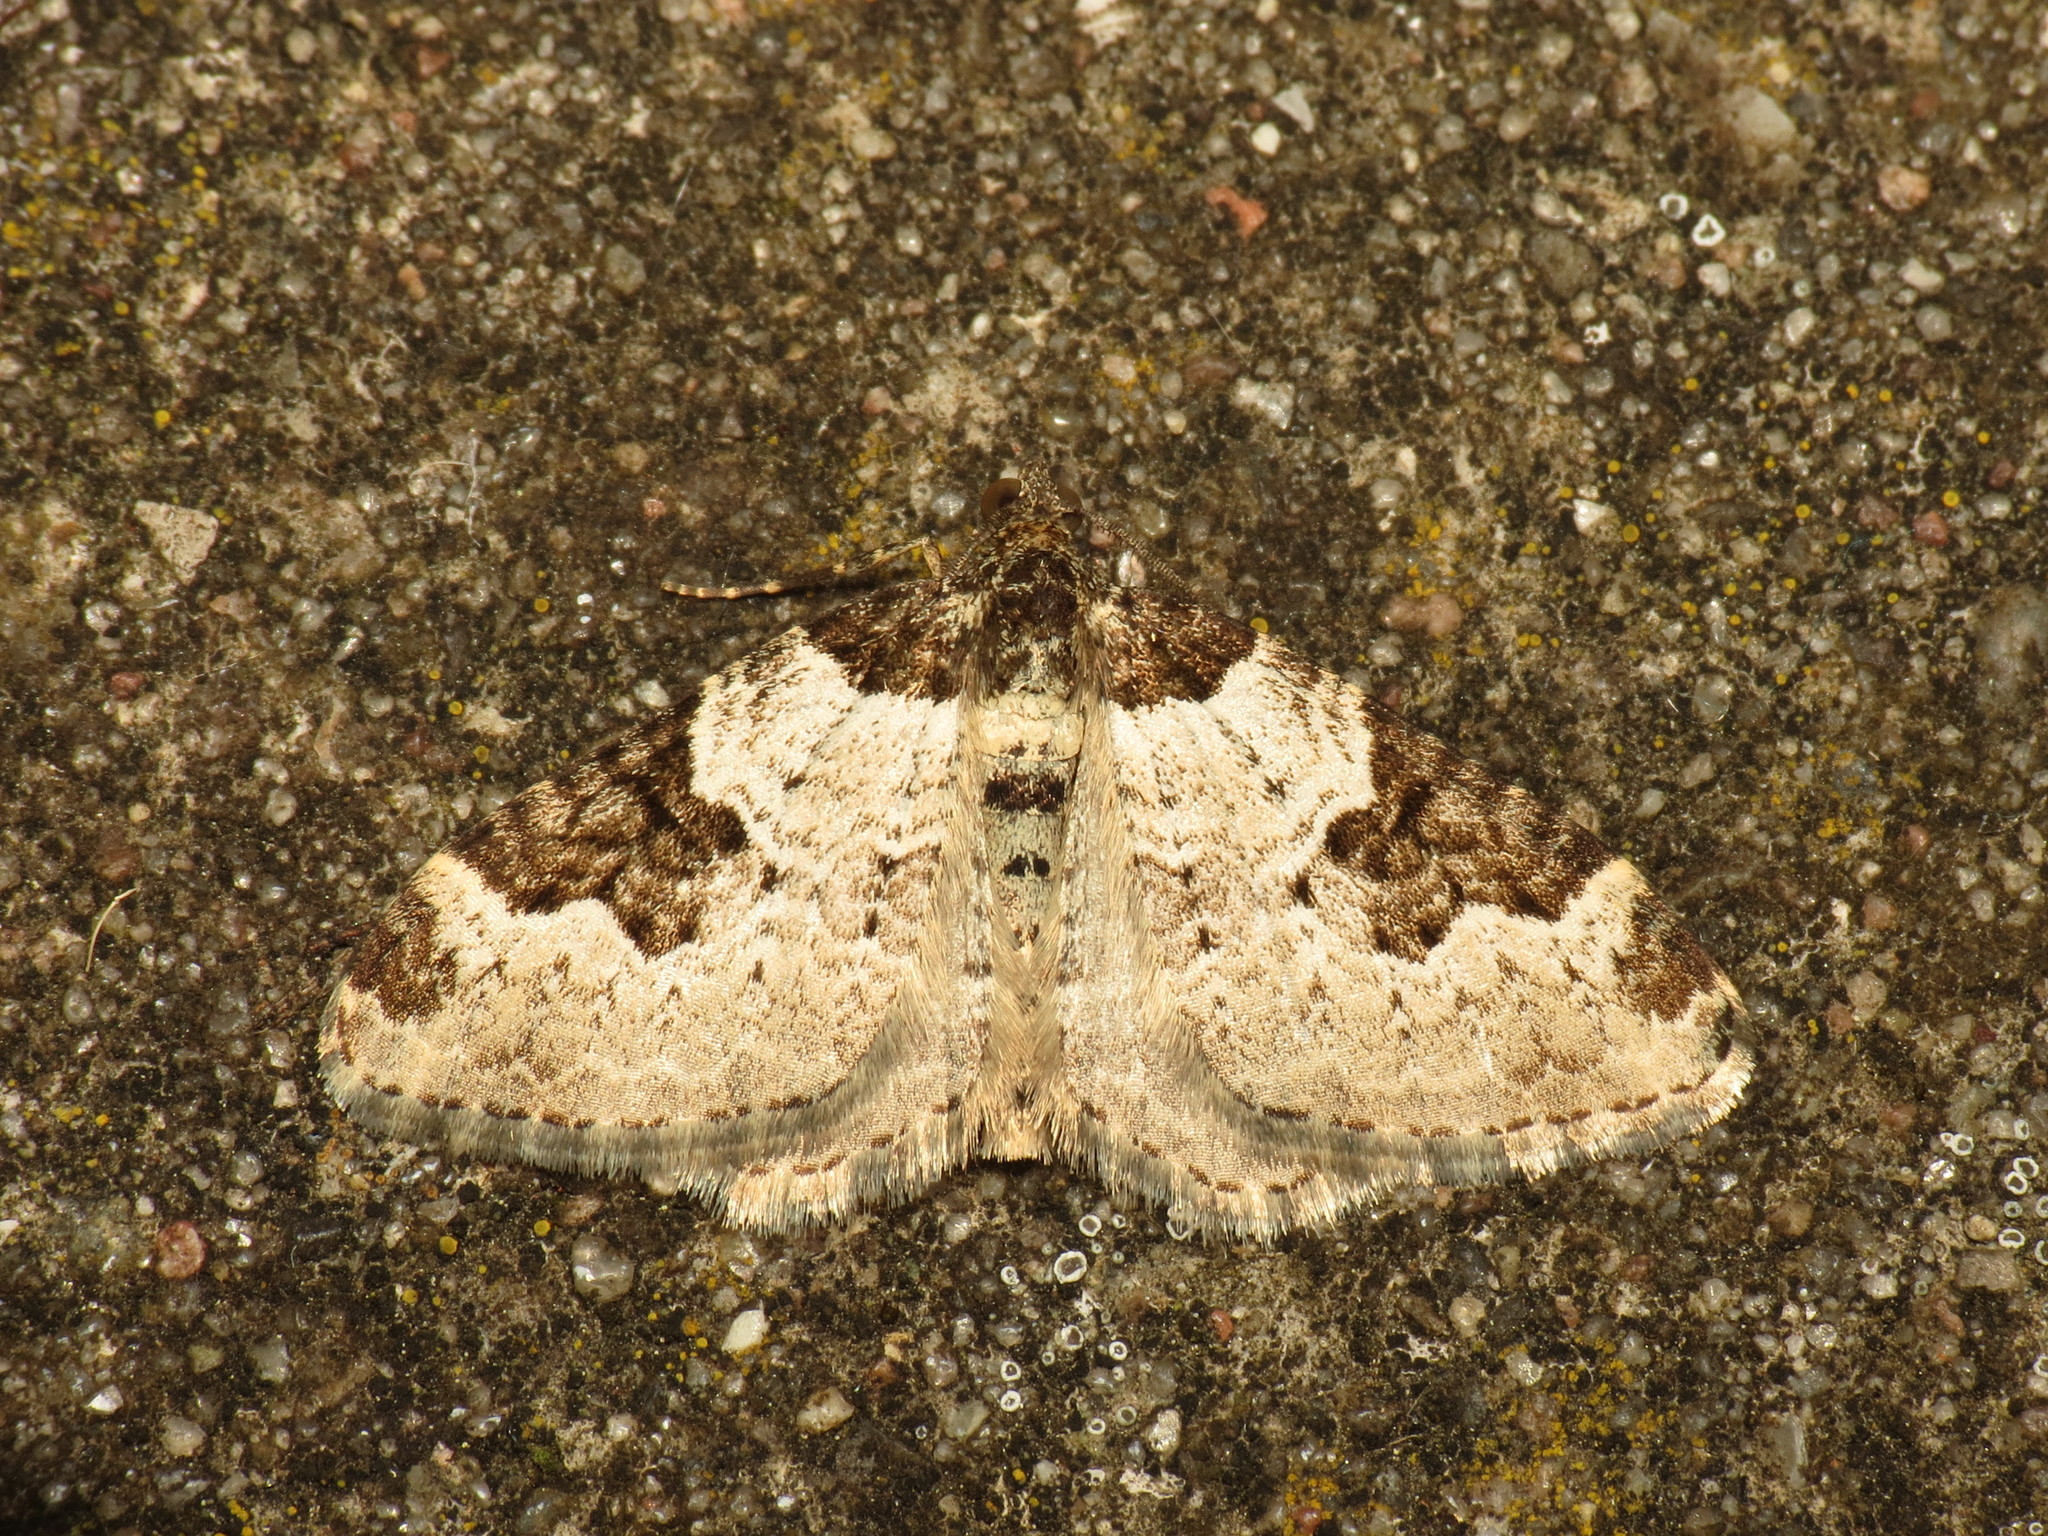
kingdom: Animalia
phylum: Arthropoda
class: Insecta
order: Lepidoptera
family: Geometridae
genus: Xanthorhoe
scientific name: Xanthorhoe fluctuata
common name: Garden carpet
